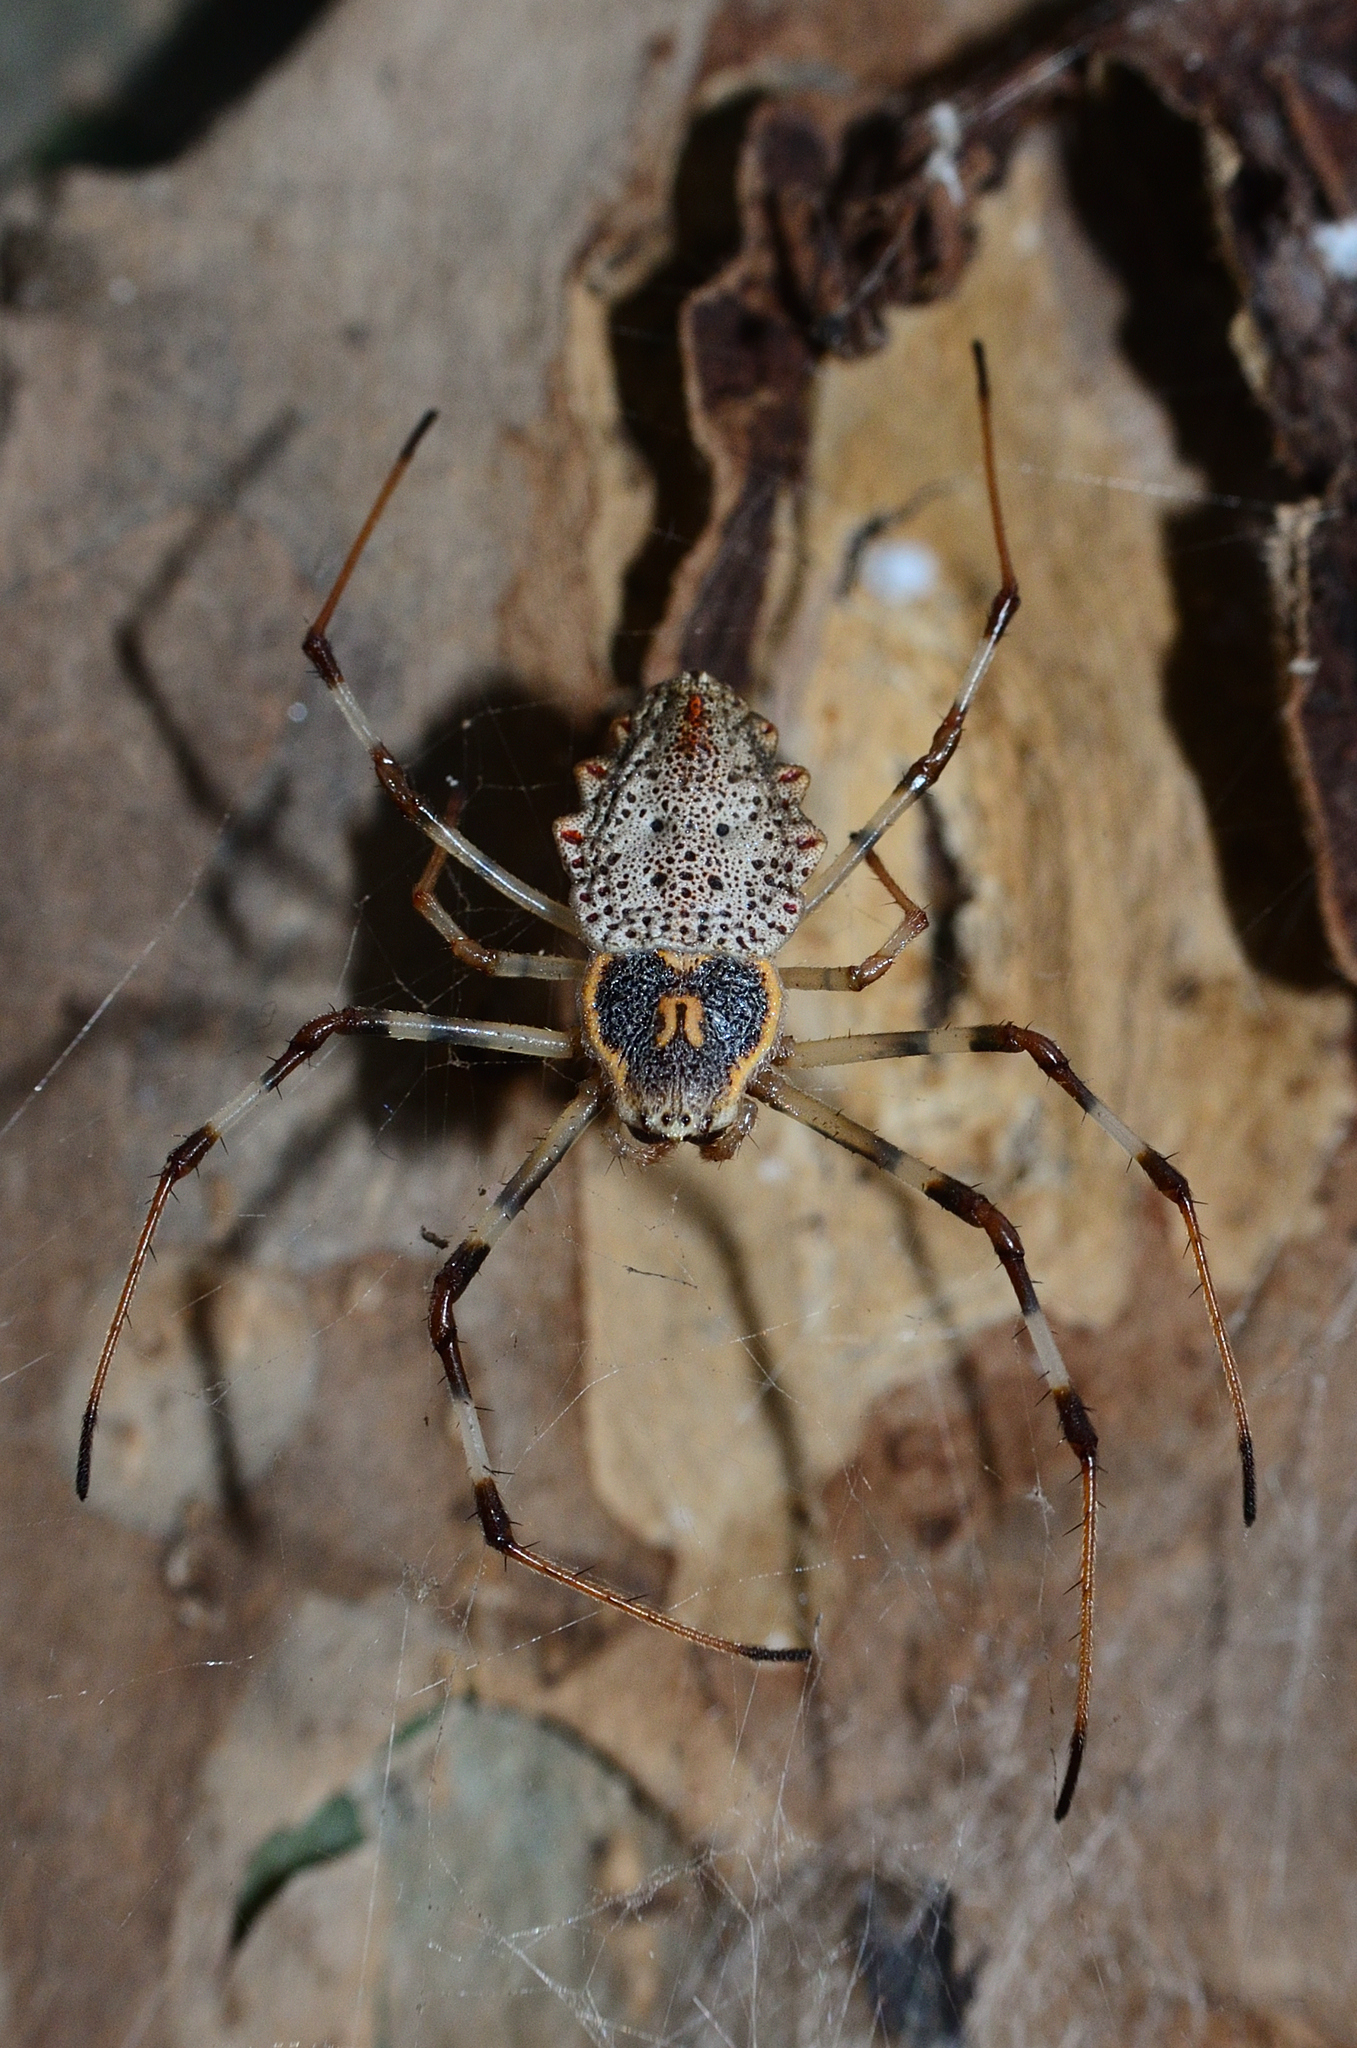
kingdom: Animalia
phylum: Arthropoda
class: Arachnida
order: Araneae
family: Araneidae
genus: Herennia
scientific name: Herennia multipuncta
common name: Spotted coin spider
